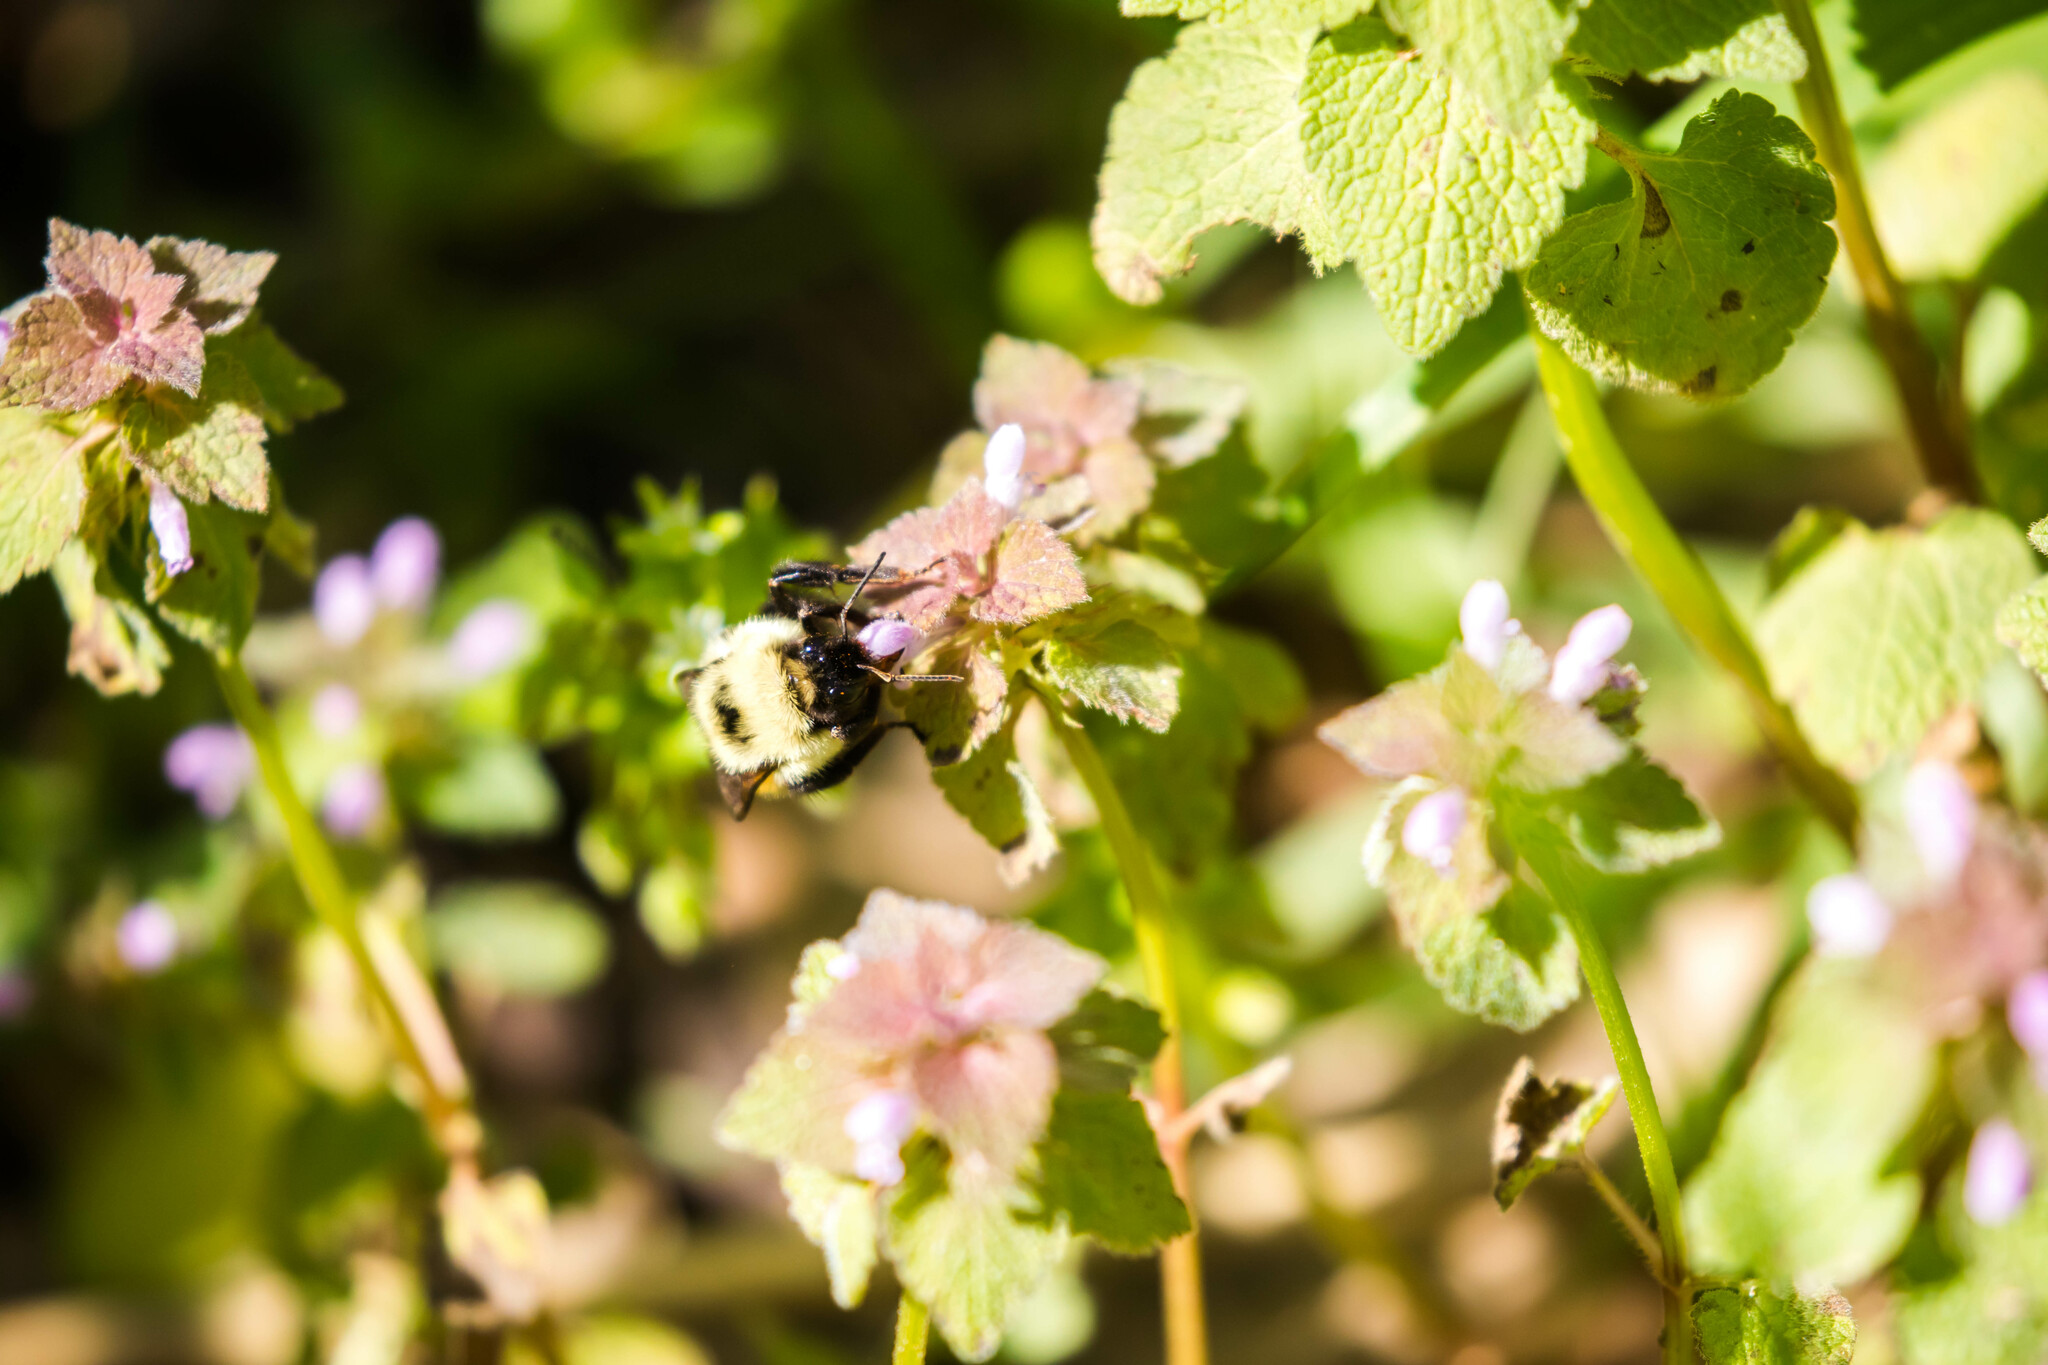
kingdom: Animalia
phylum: Arthropoda
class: Insecta
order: Hymenoptera
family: Apidae
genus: Bombus
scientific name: Bombus bimaculatus
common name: Two-spotted bumble bee
